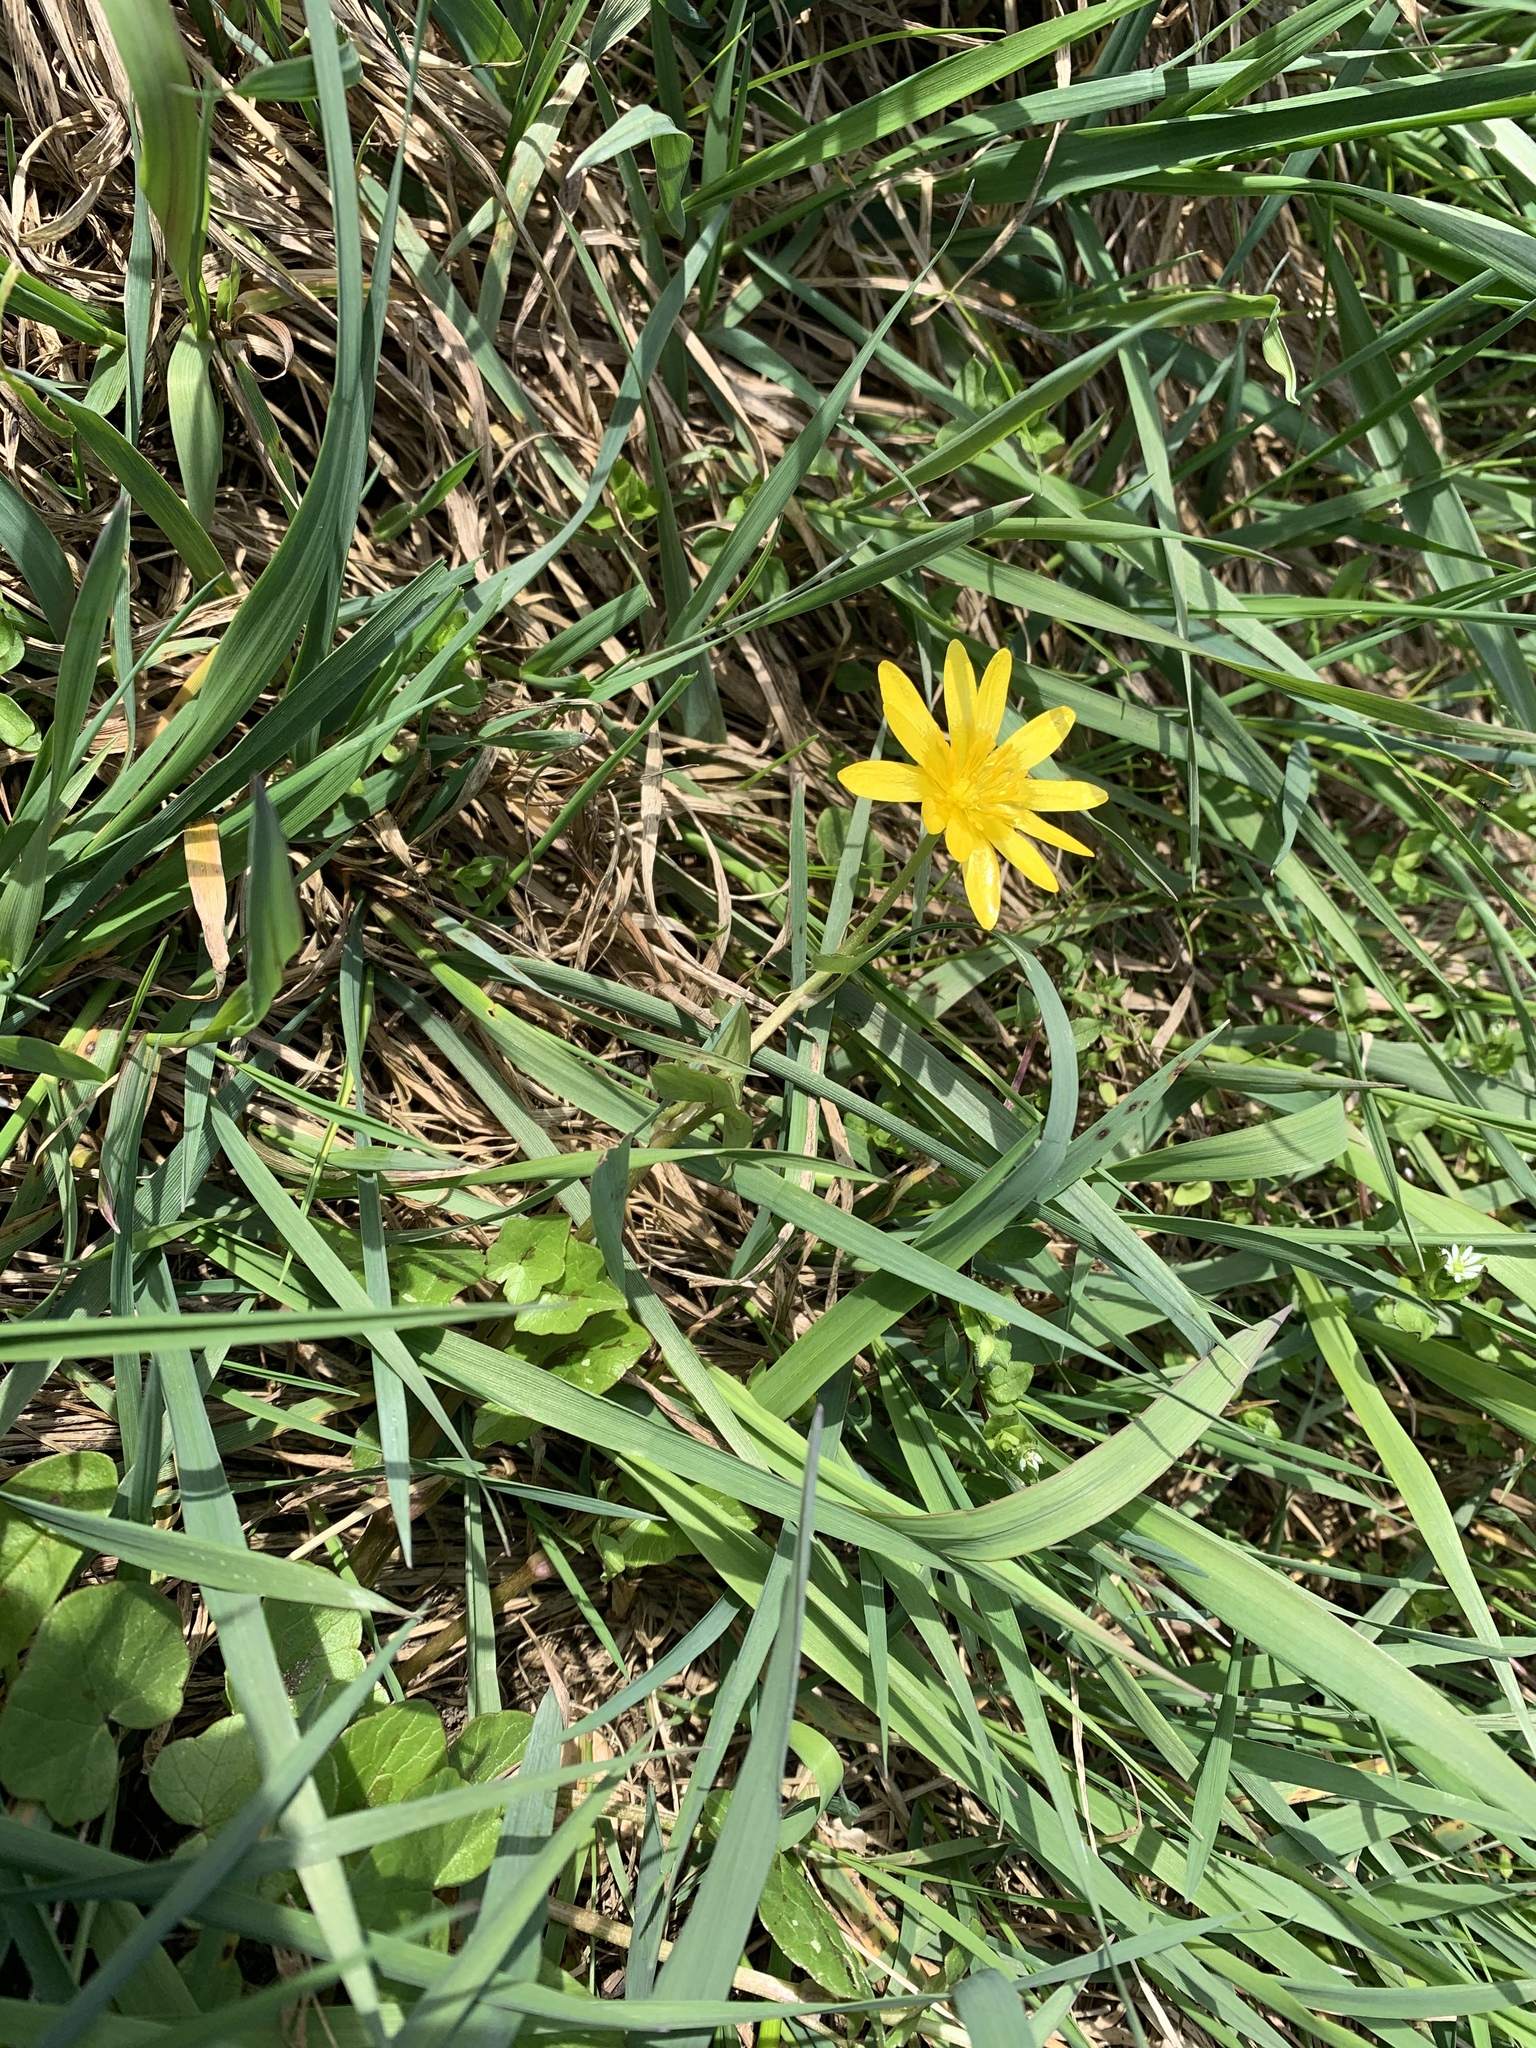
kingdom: Plantae
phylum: Tracheophyta
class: Magnoliopsida
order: Ranunculales
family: Ranunculaceae
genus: Ficaria
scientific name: Ficaria verna
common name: Lesser celandine
